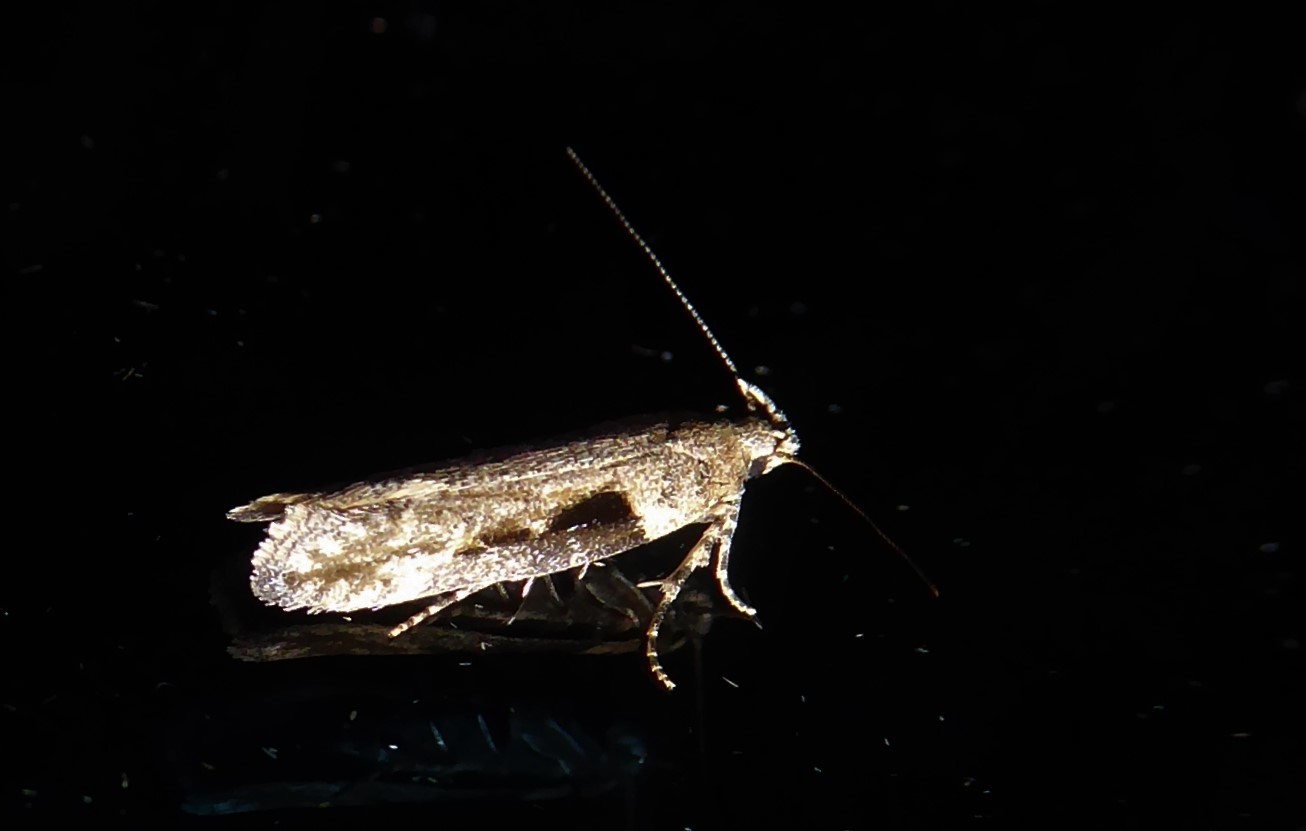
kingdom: Animalia
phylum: Arthropoda
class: Insecta
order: Lepidoptera
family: Gelechiidae
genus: Symmetrischema
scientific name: Symmetrischema tangolias
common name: Moth
